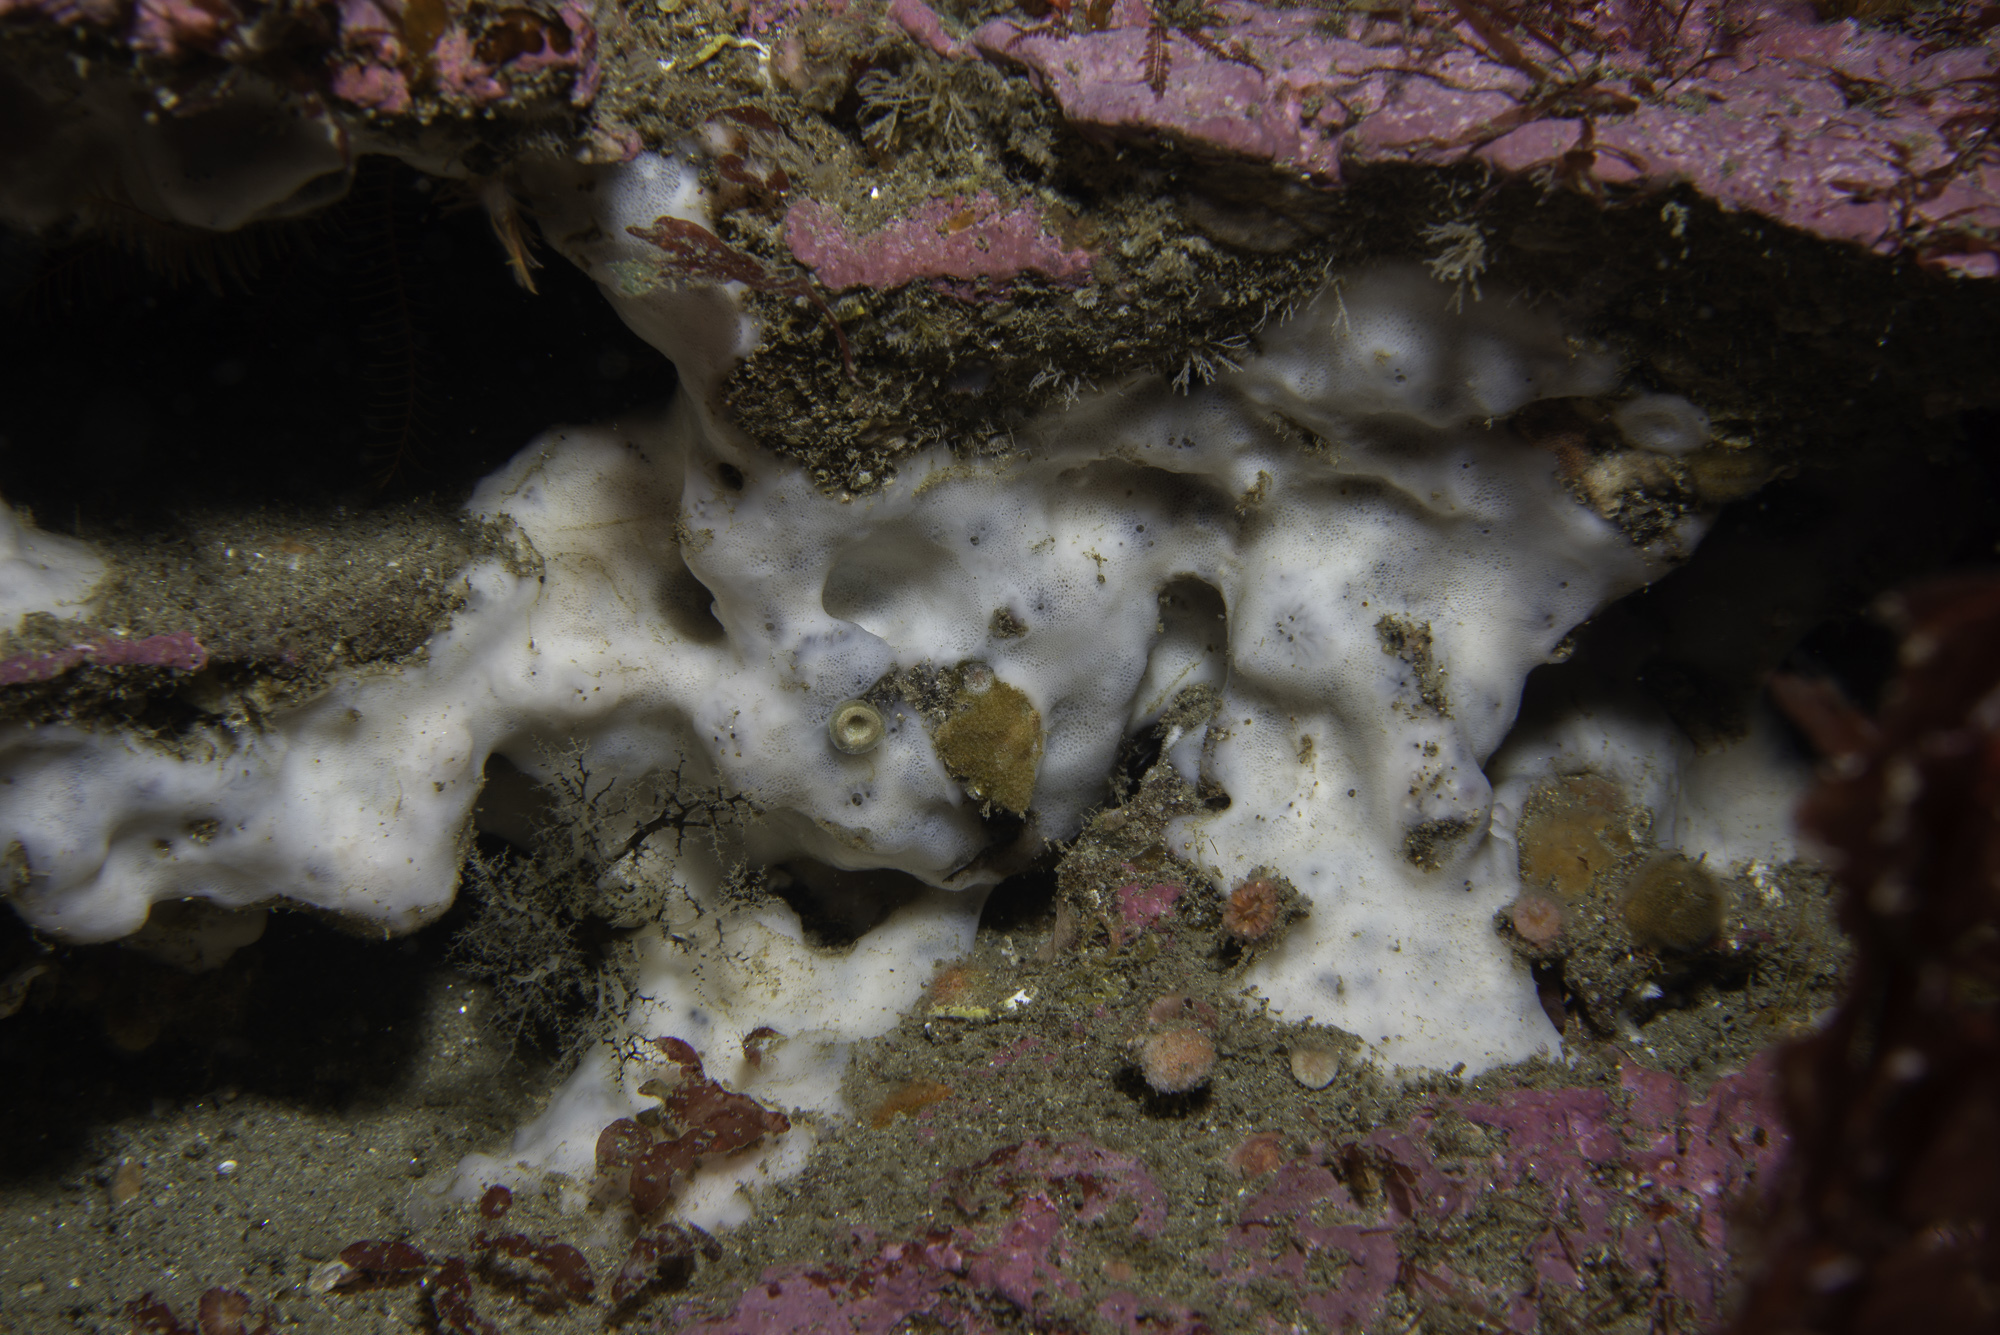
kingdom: Animalia
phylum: Porifera
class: Demospongiae
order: Chondrillida
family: Chondrillidae
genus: Thymosia
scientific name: Thymosia guernei
